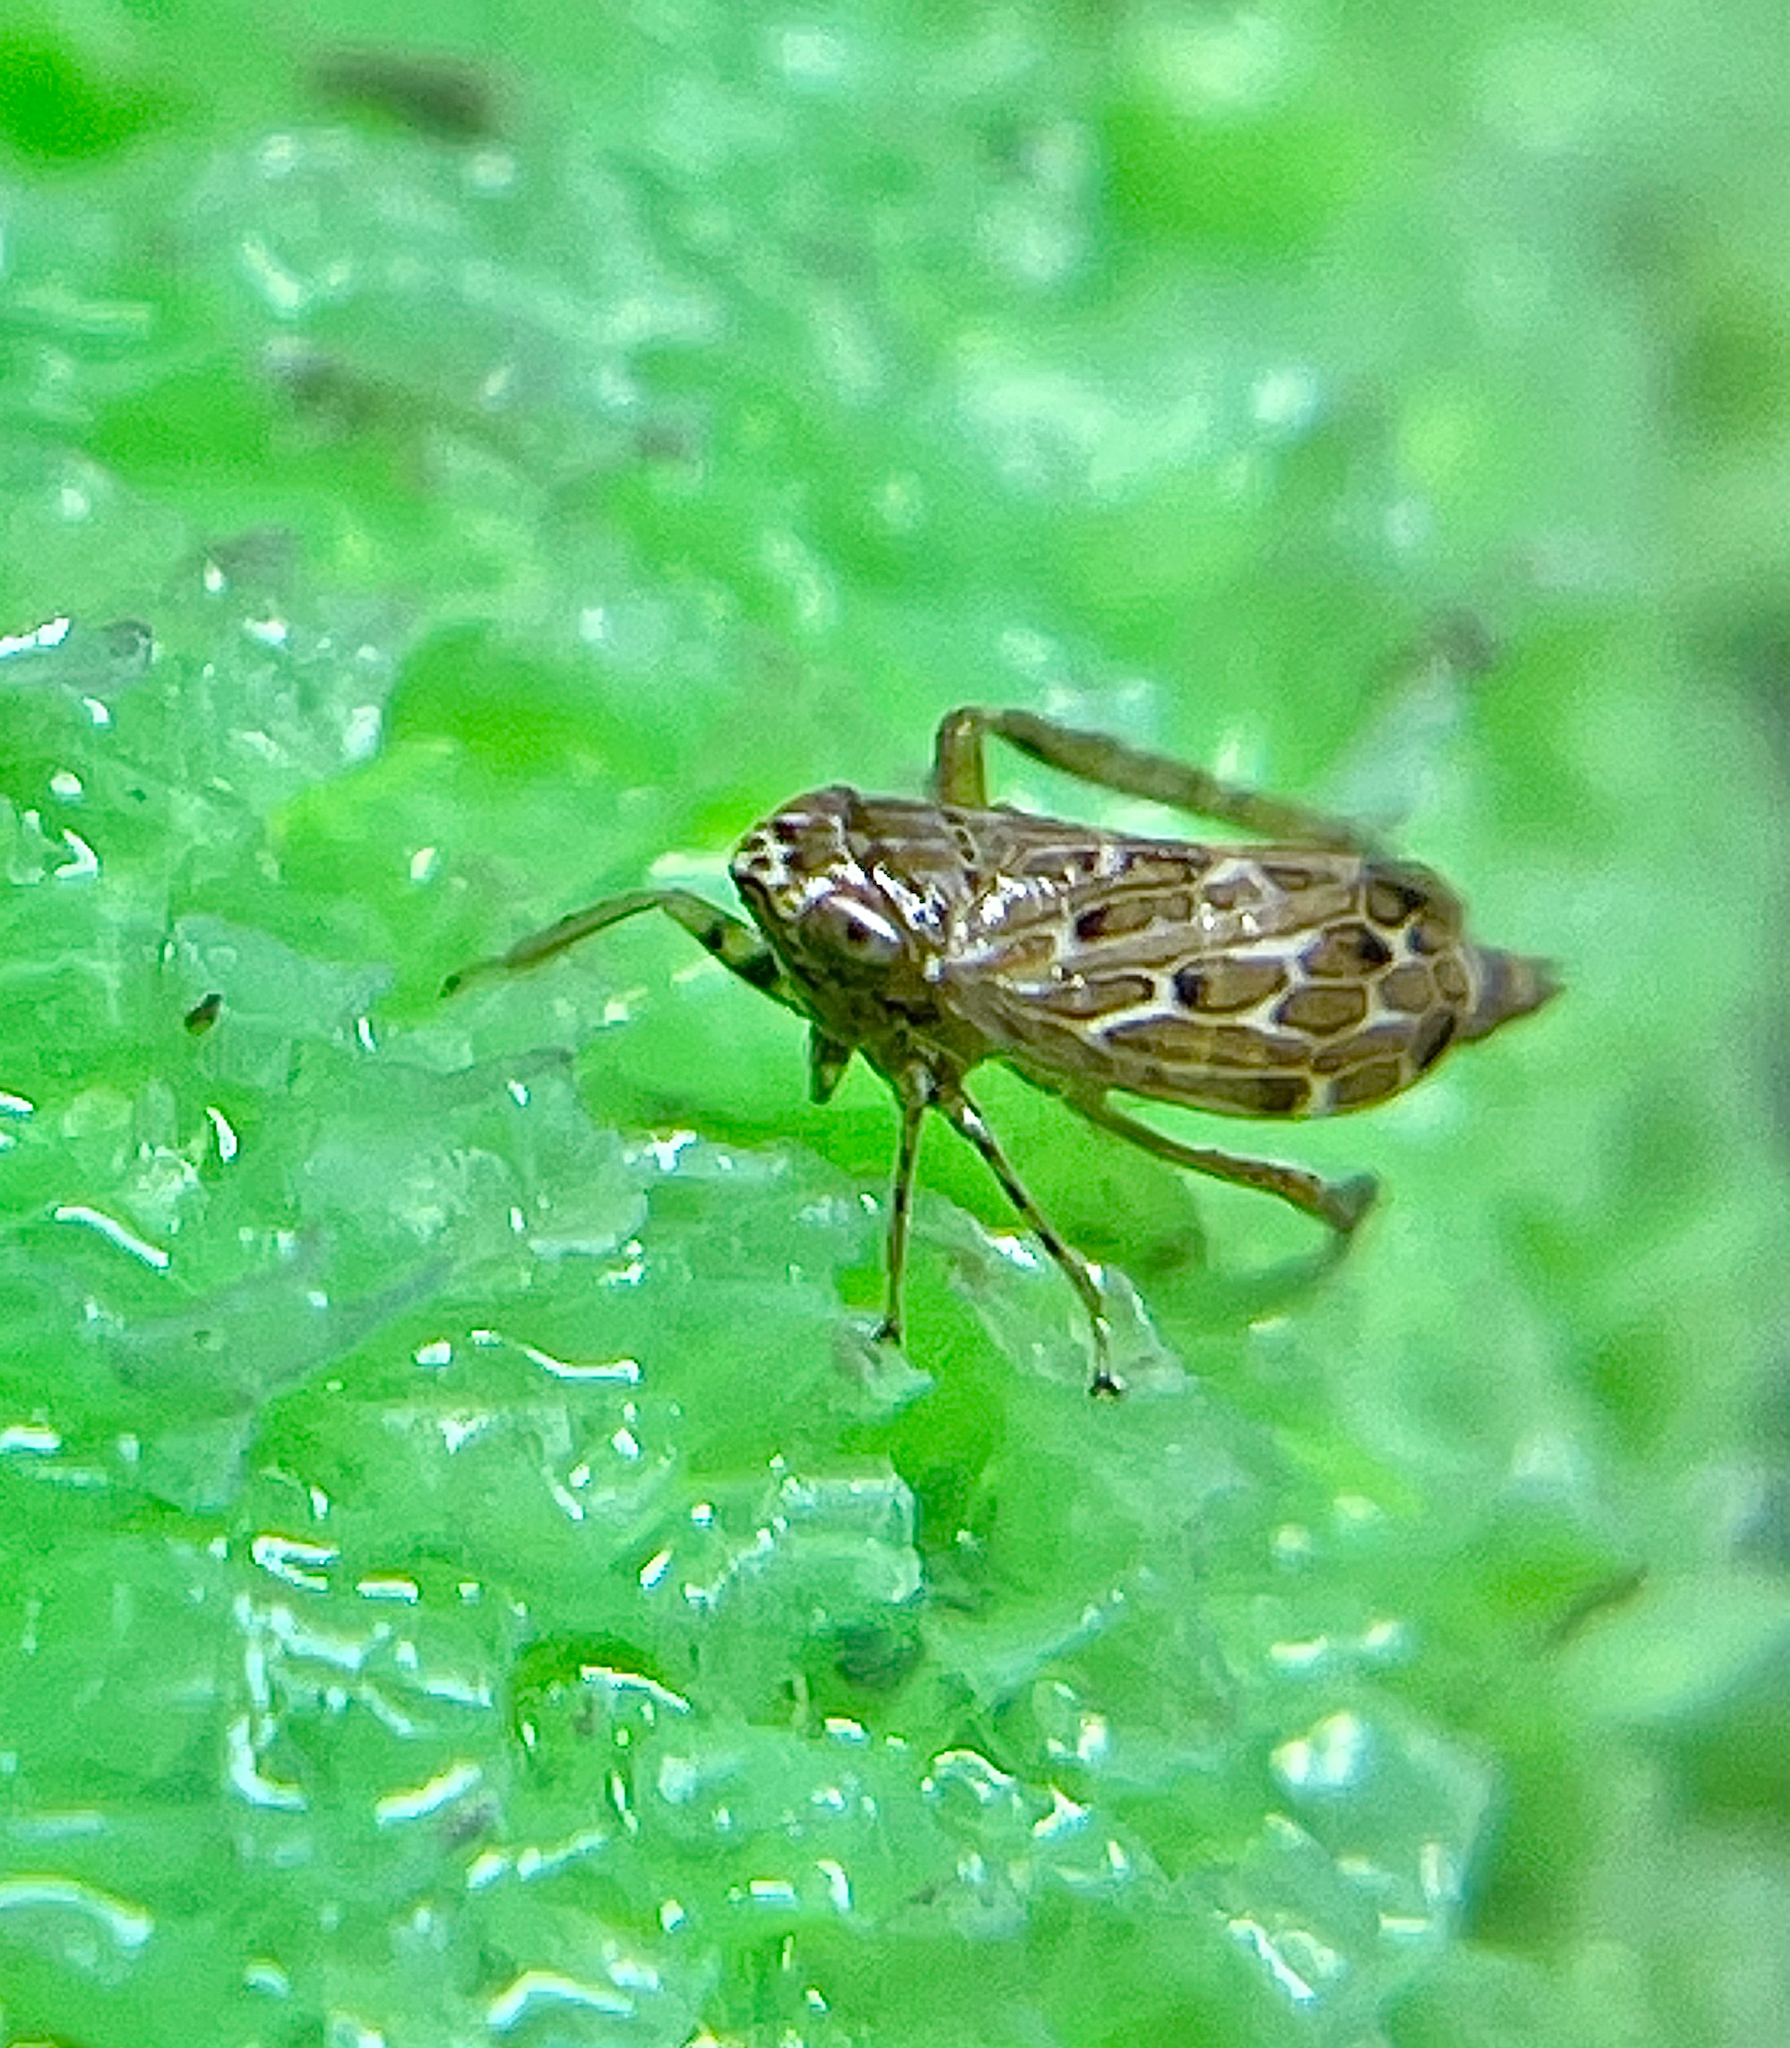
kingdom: Animalia
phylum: Arthropoda
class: Insecta
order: Hemiptera
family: Cicadellidae
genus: Polyamia
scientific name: Polyamia weedi
